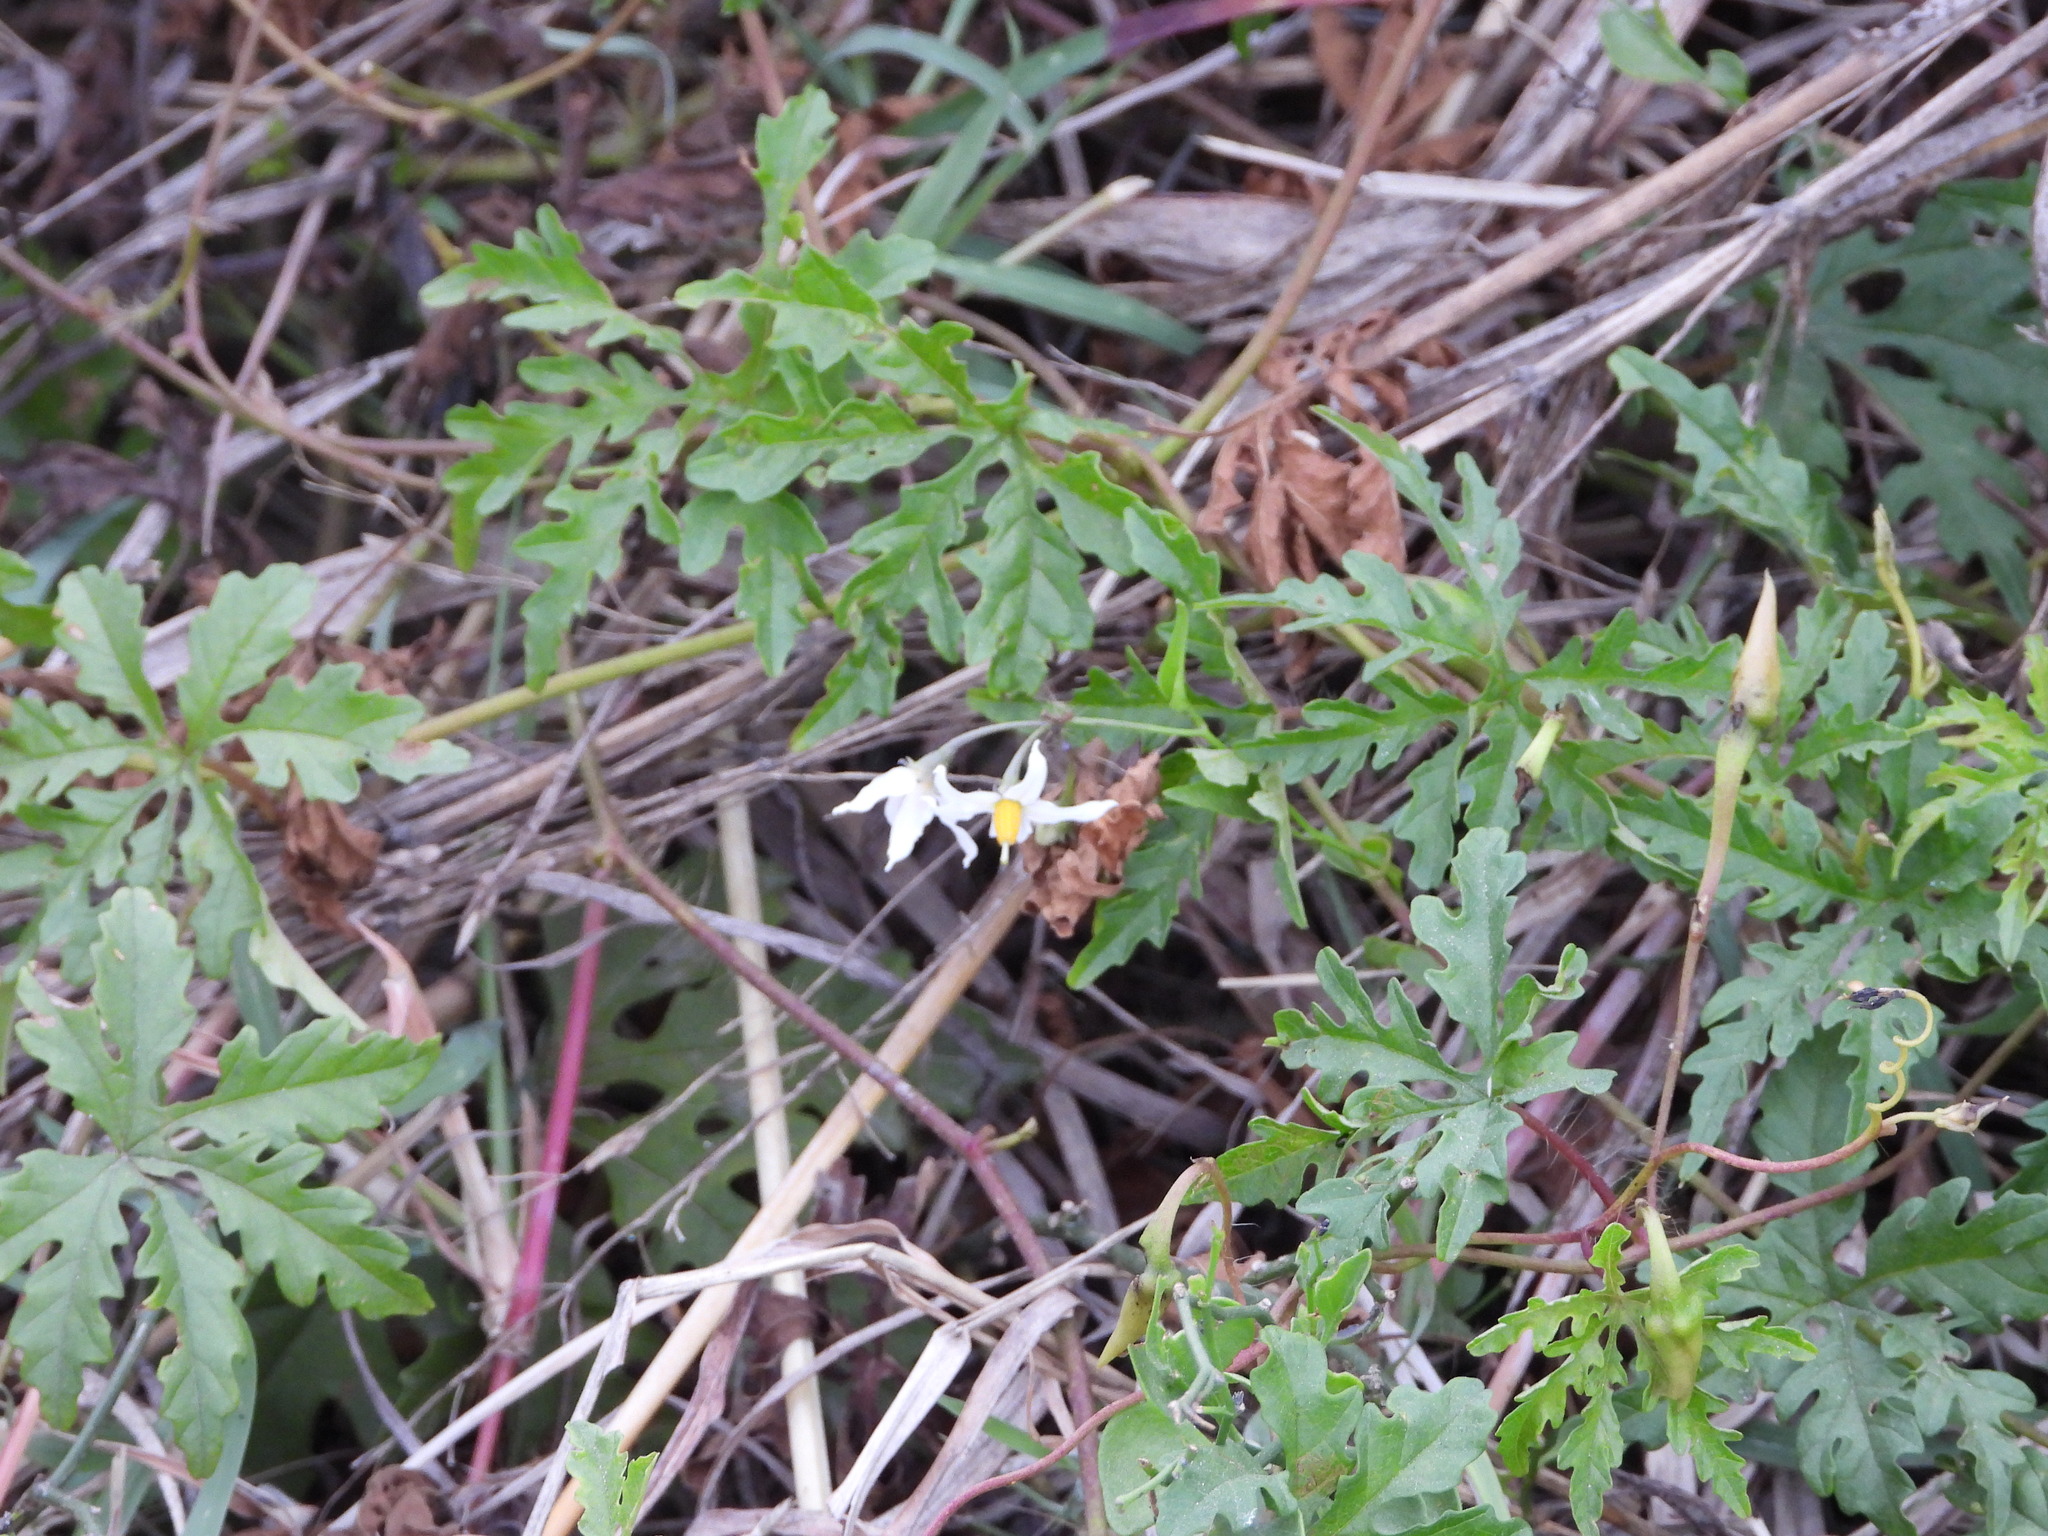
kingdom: Plantae
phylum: Tracheophyta
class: Magnoliopsida
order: Solanales
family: Solanaceae
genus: Solanum
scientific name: Solanum triquetrum
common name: Texas nightshade
